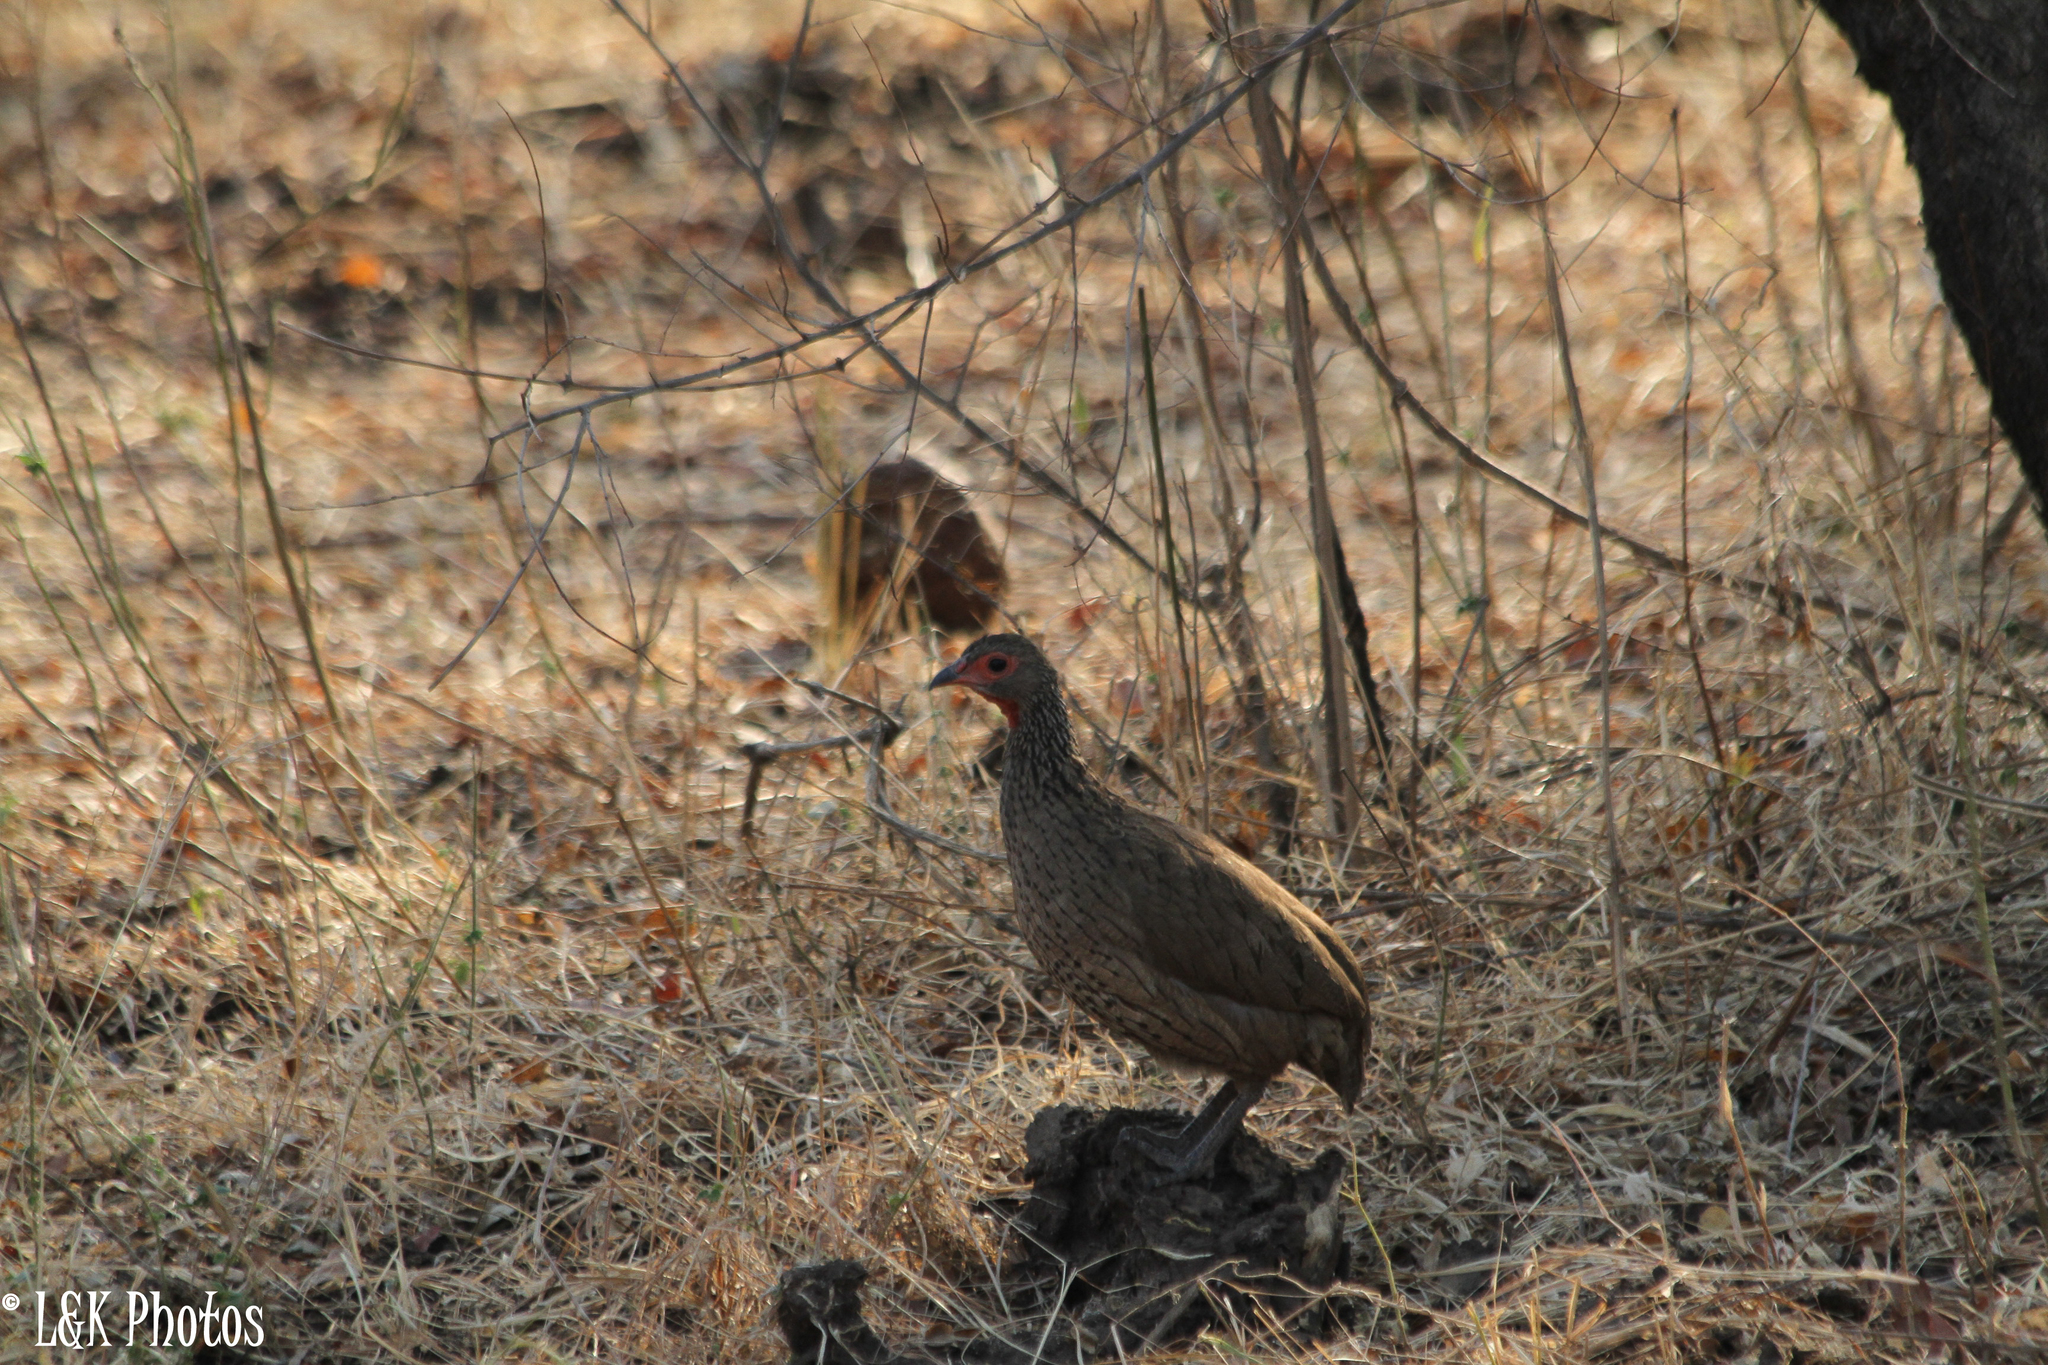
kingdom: Animalia
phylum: Chordata
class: Aves
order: Galliformes
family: Phasianidae
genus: Pternistis
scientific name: Pternistis swainsonii
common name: Swainson's spurfowl
